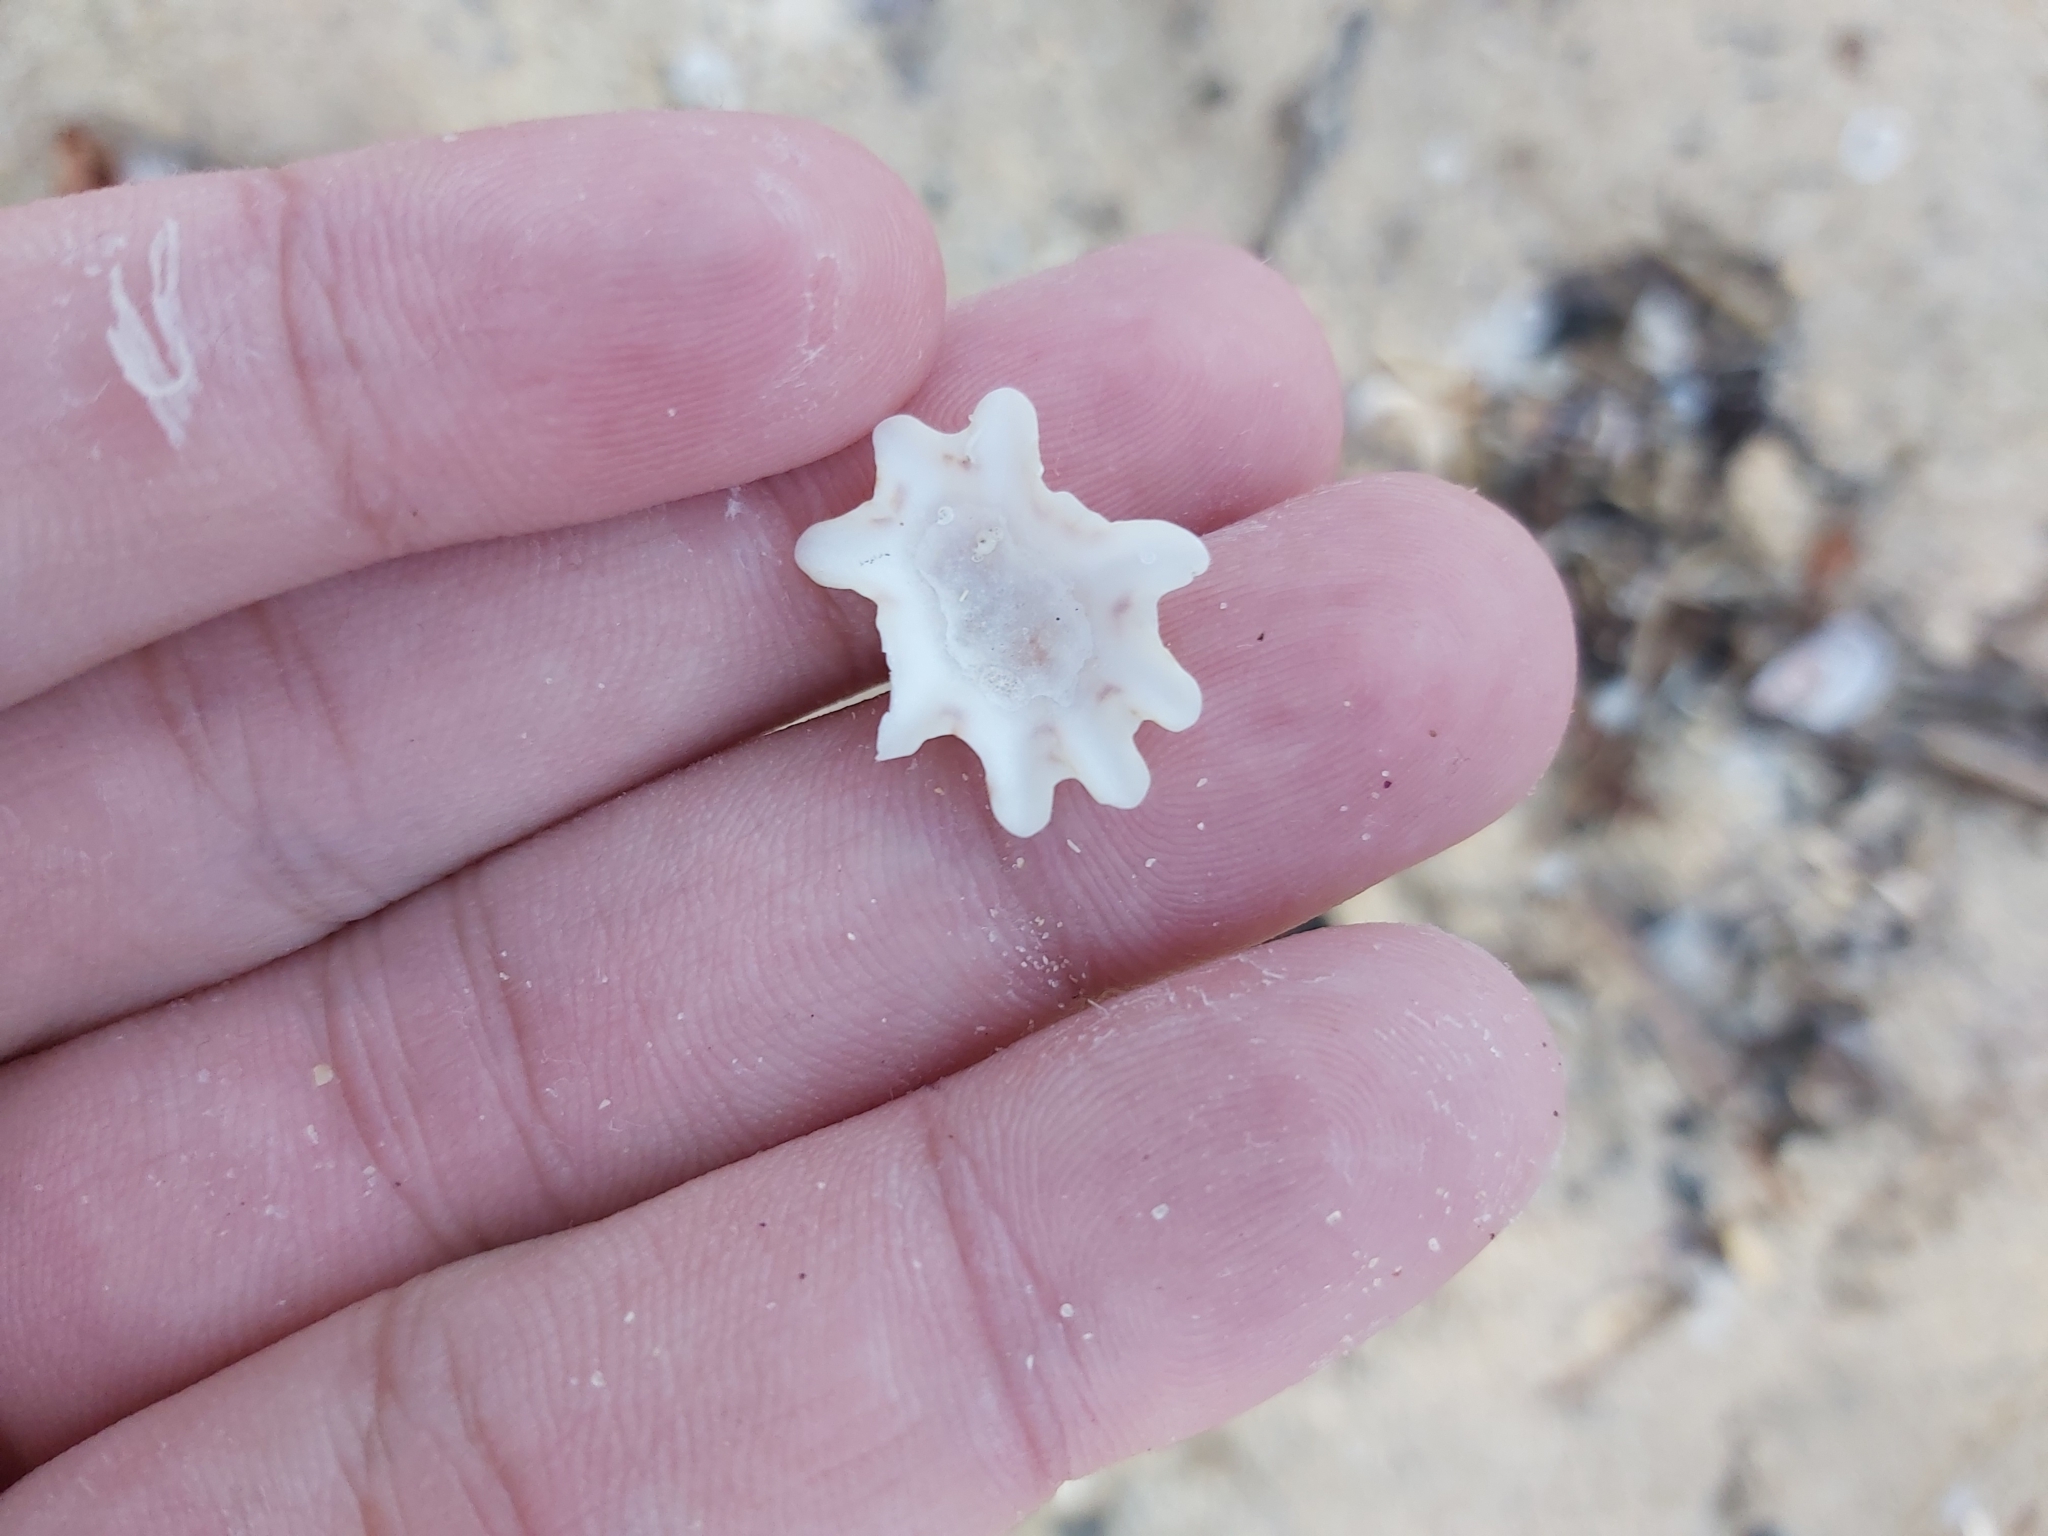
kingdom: Animalia
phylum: Mollusca
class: Gastropoda
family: Patellidae
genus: Scutellastra
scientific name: Scutellastra chapmani
